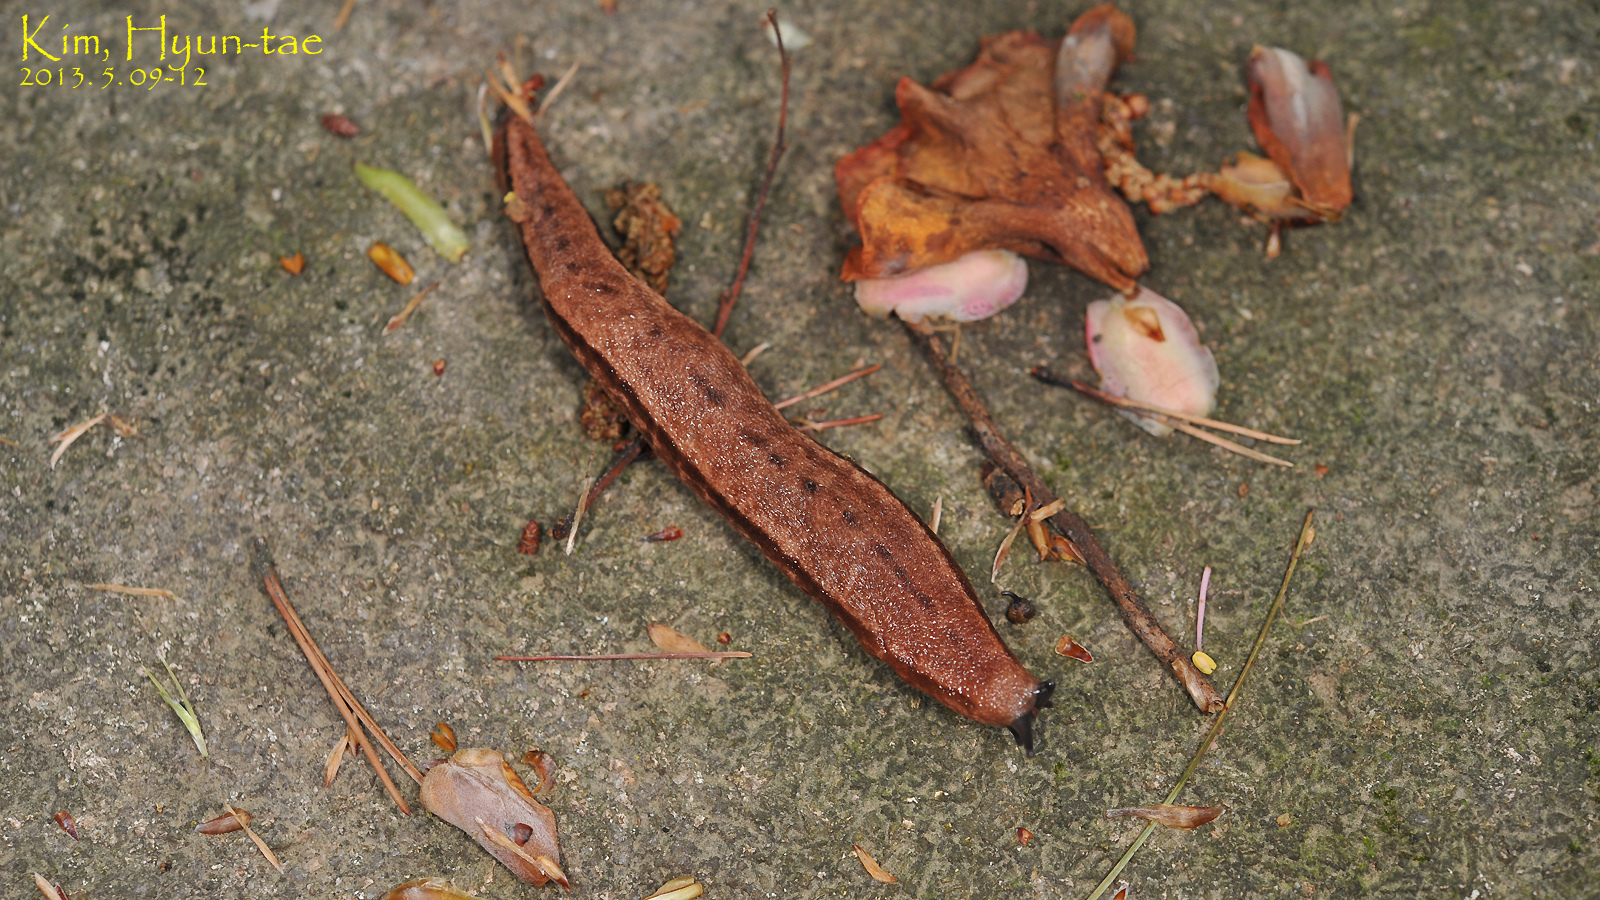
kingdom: Animalia
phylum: Mollusca
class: Gastropoda
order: Stylommatophora
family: Philomycidae
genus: Meghimatium
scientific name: Meghimatium fruhstorferi
